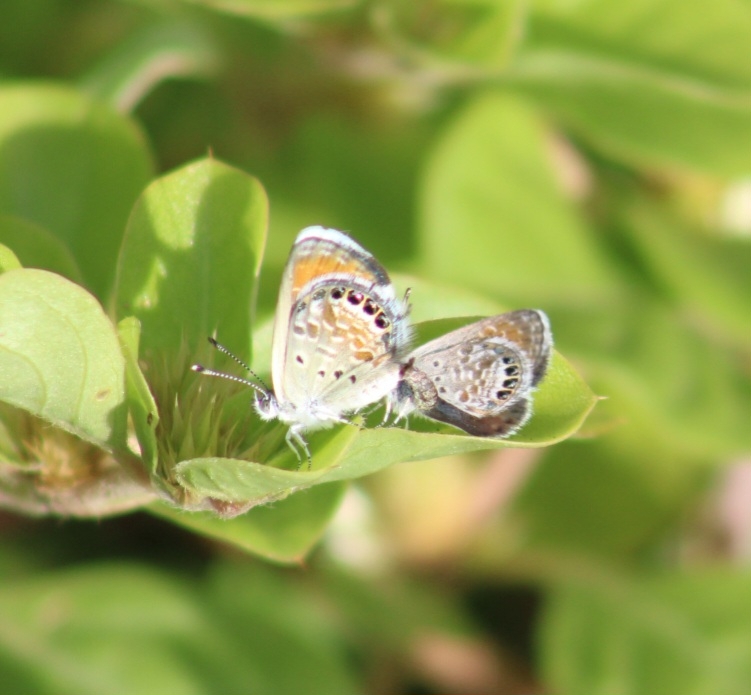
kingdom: Animalia
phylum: Arthropoda
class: Insecta
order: Lepidoptera
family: Lycaenidae
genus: Brephidium
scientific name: Brephidium exilis
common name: Pygmy blue
